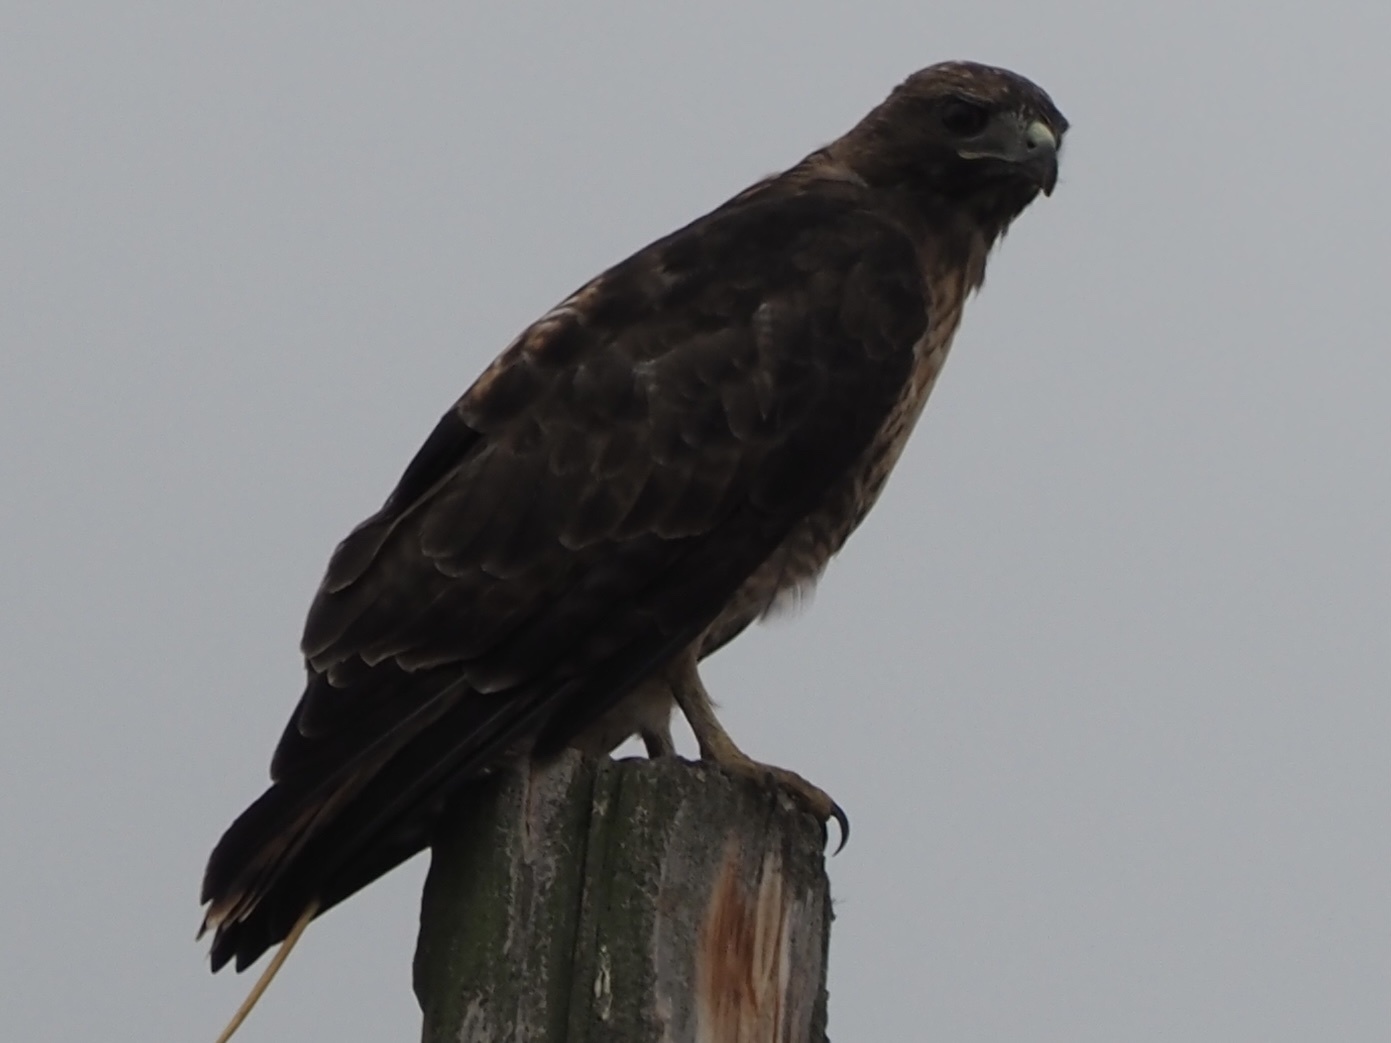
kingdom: Animalia
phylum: Chordata
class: Aves
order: Accipitriformes
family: Accipitridae
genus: Buteo
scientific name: Buteo jamaicensis
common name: Red-tailed hawk
